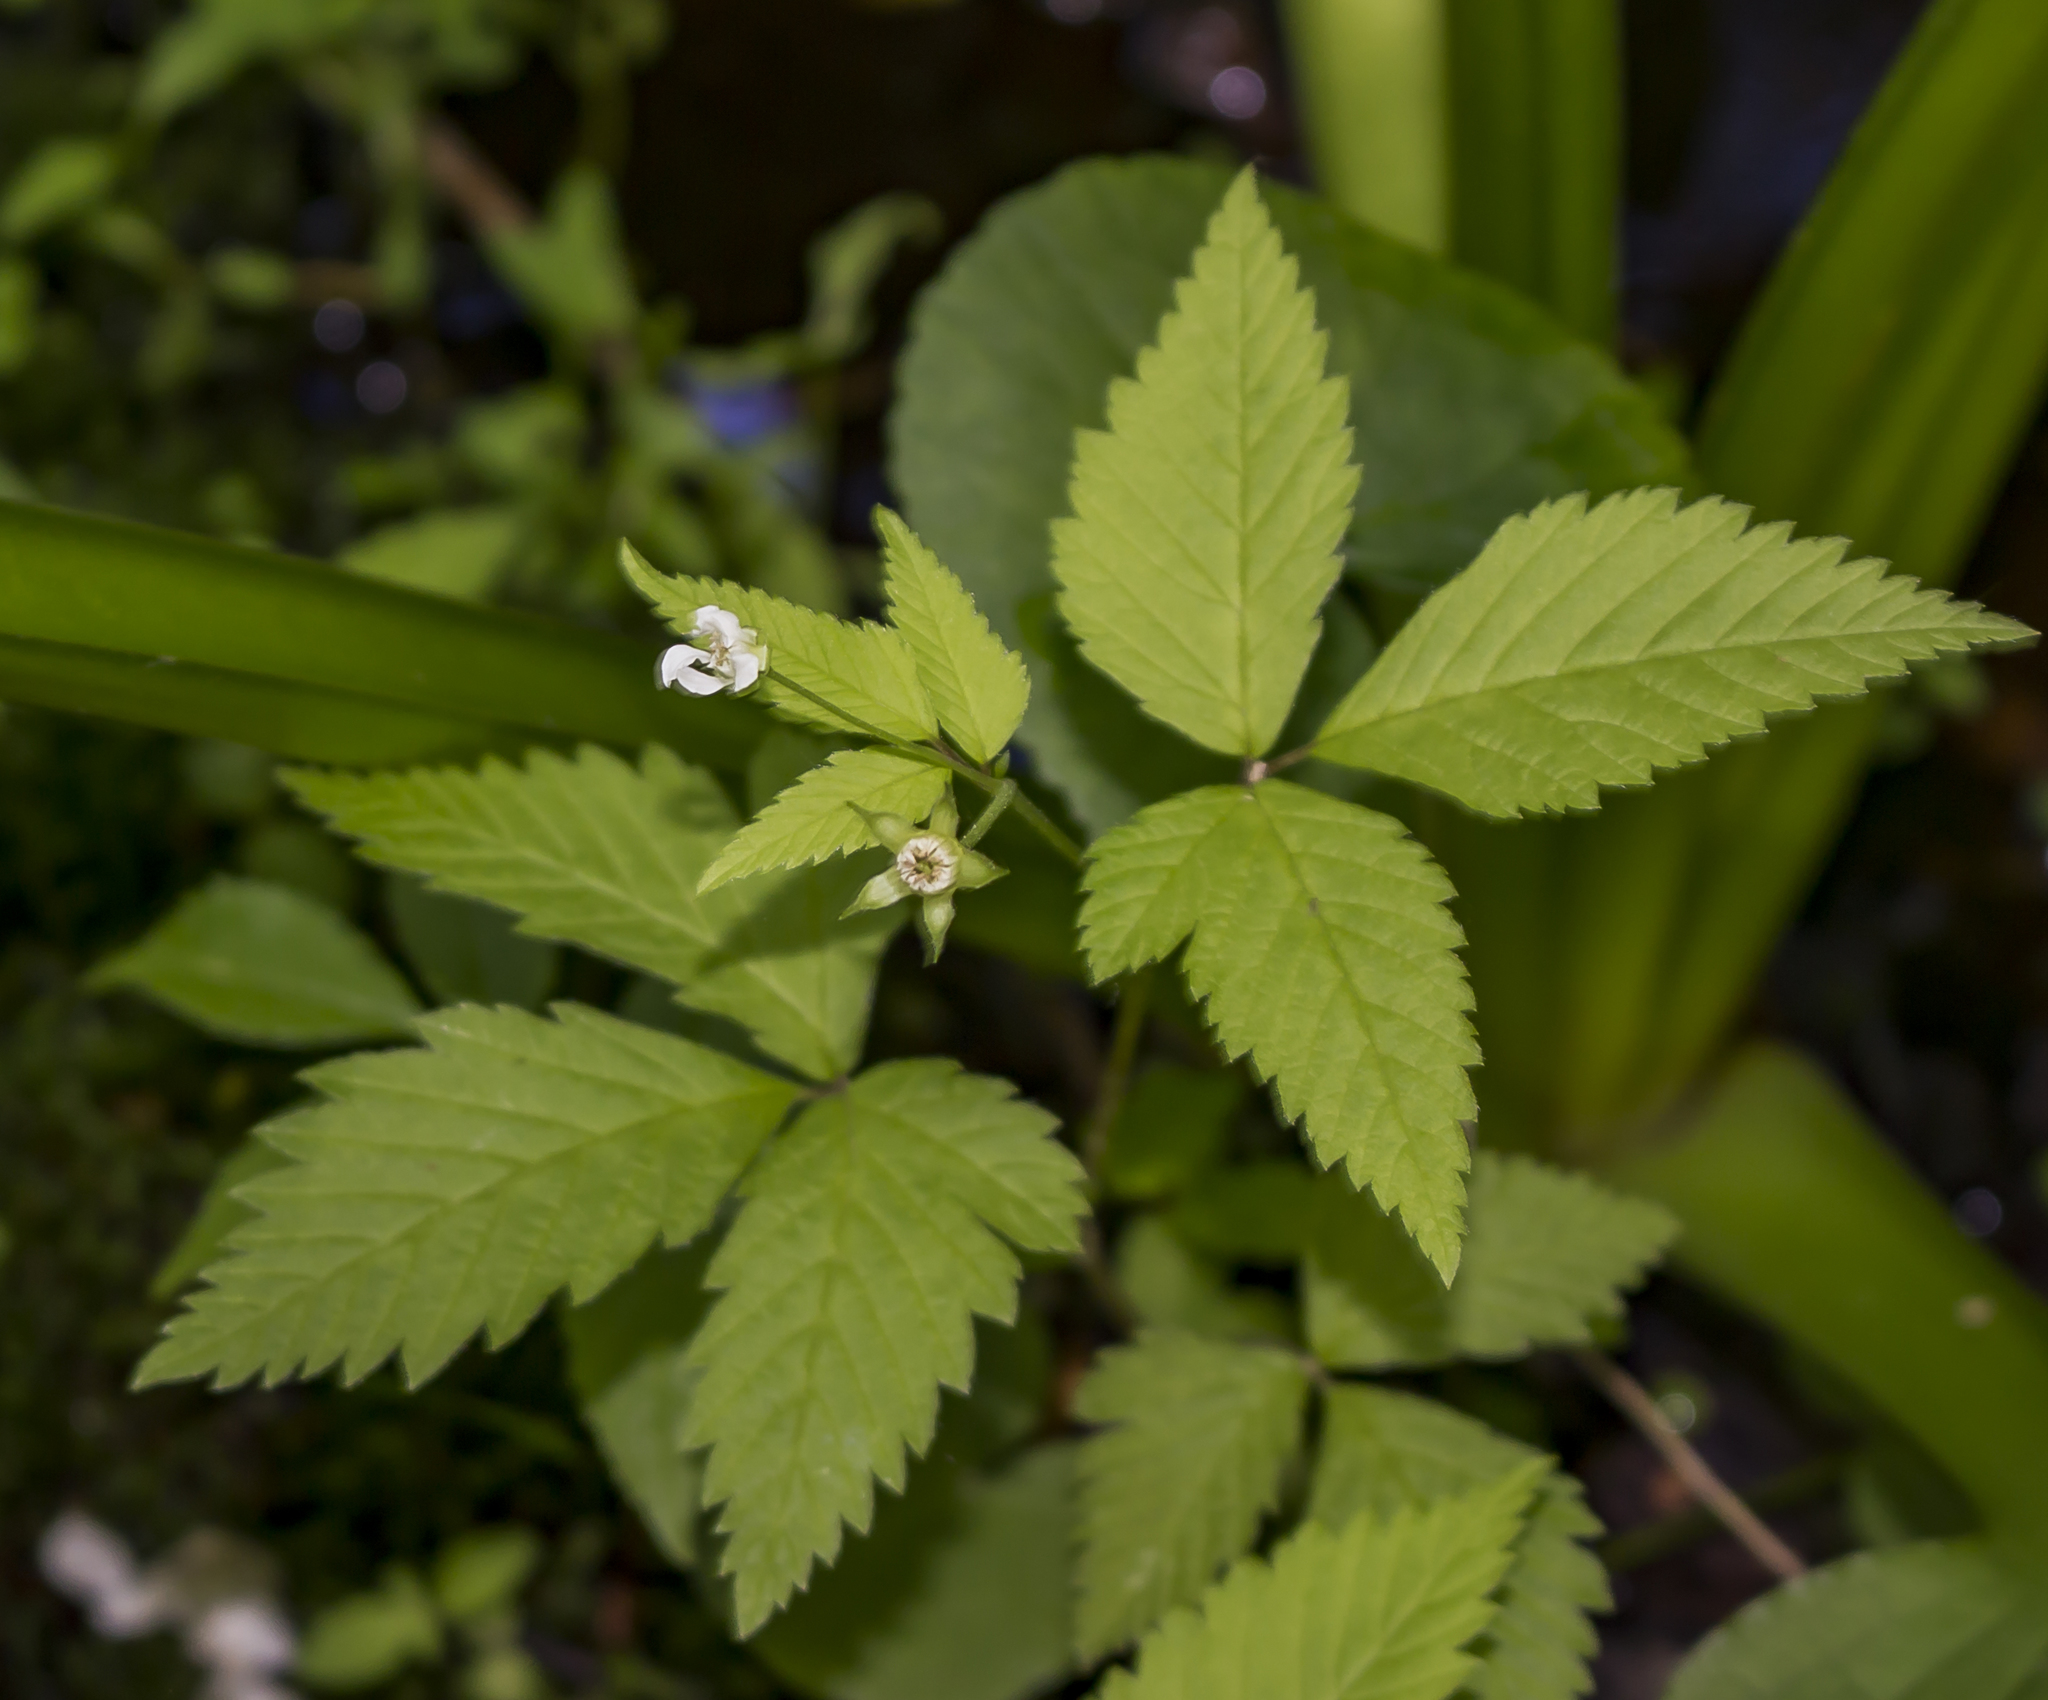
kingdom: Plantae
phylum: Tracheophyta
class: Magnoliopsida
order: Rosales
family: Rosaceae
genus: Rubus
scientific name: Rubus pubescens
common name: Dwarf raspberry
